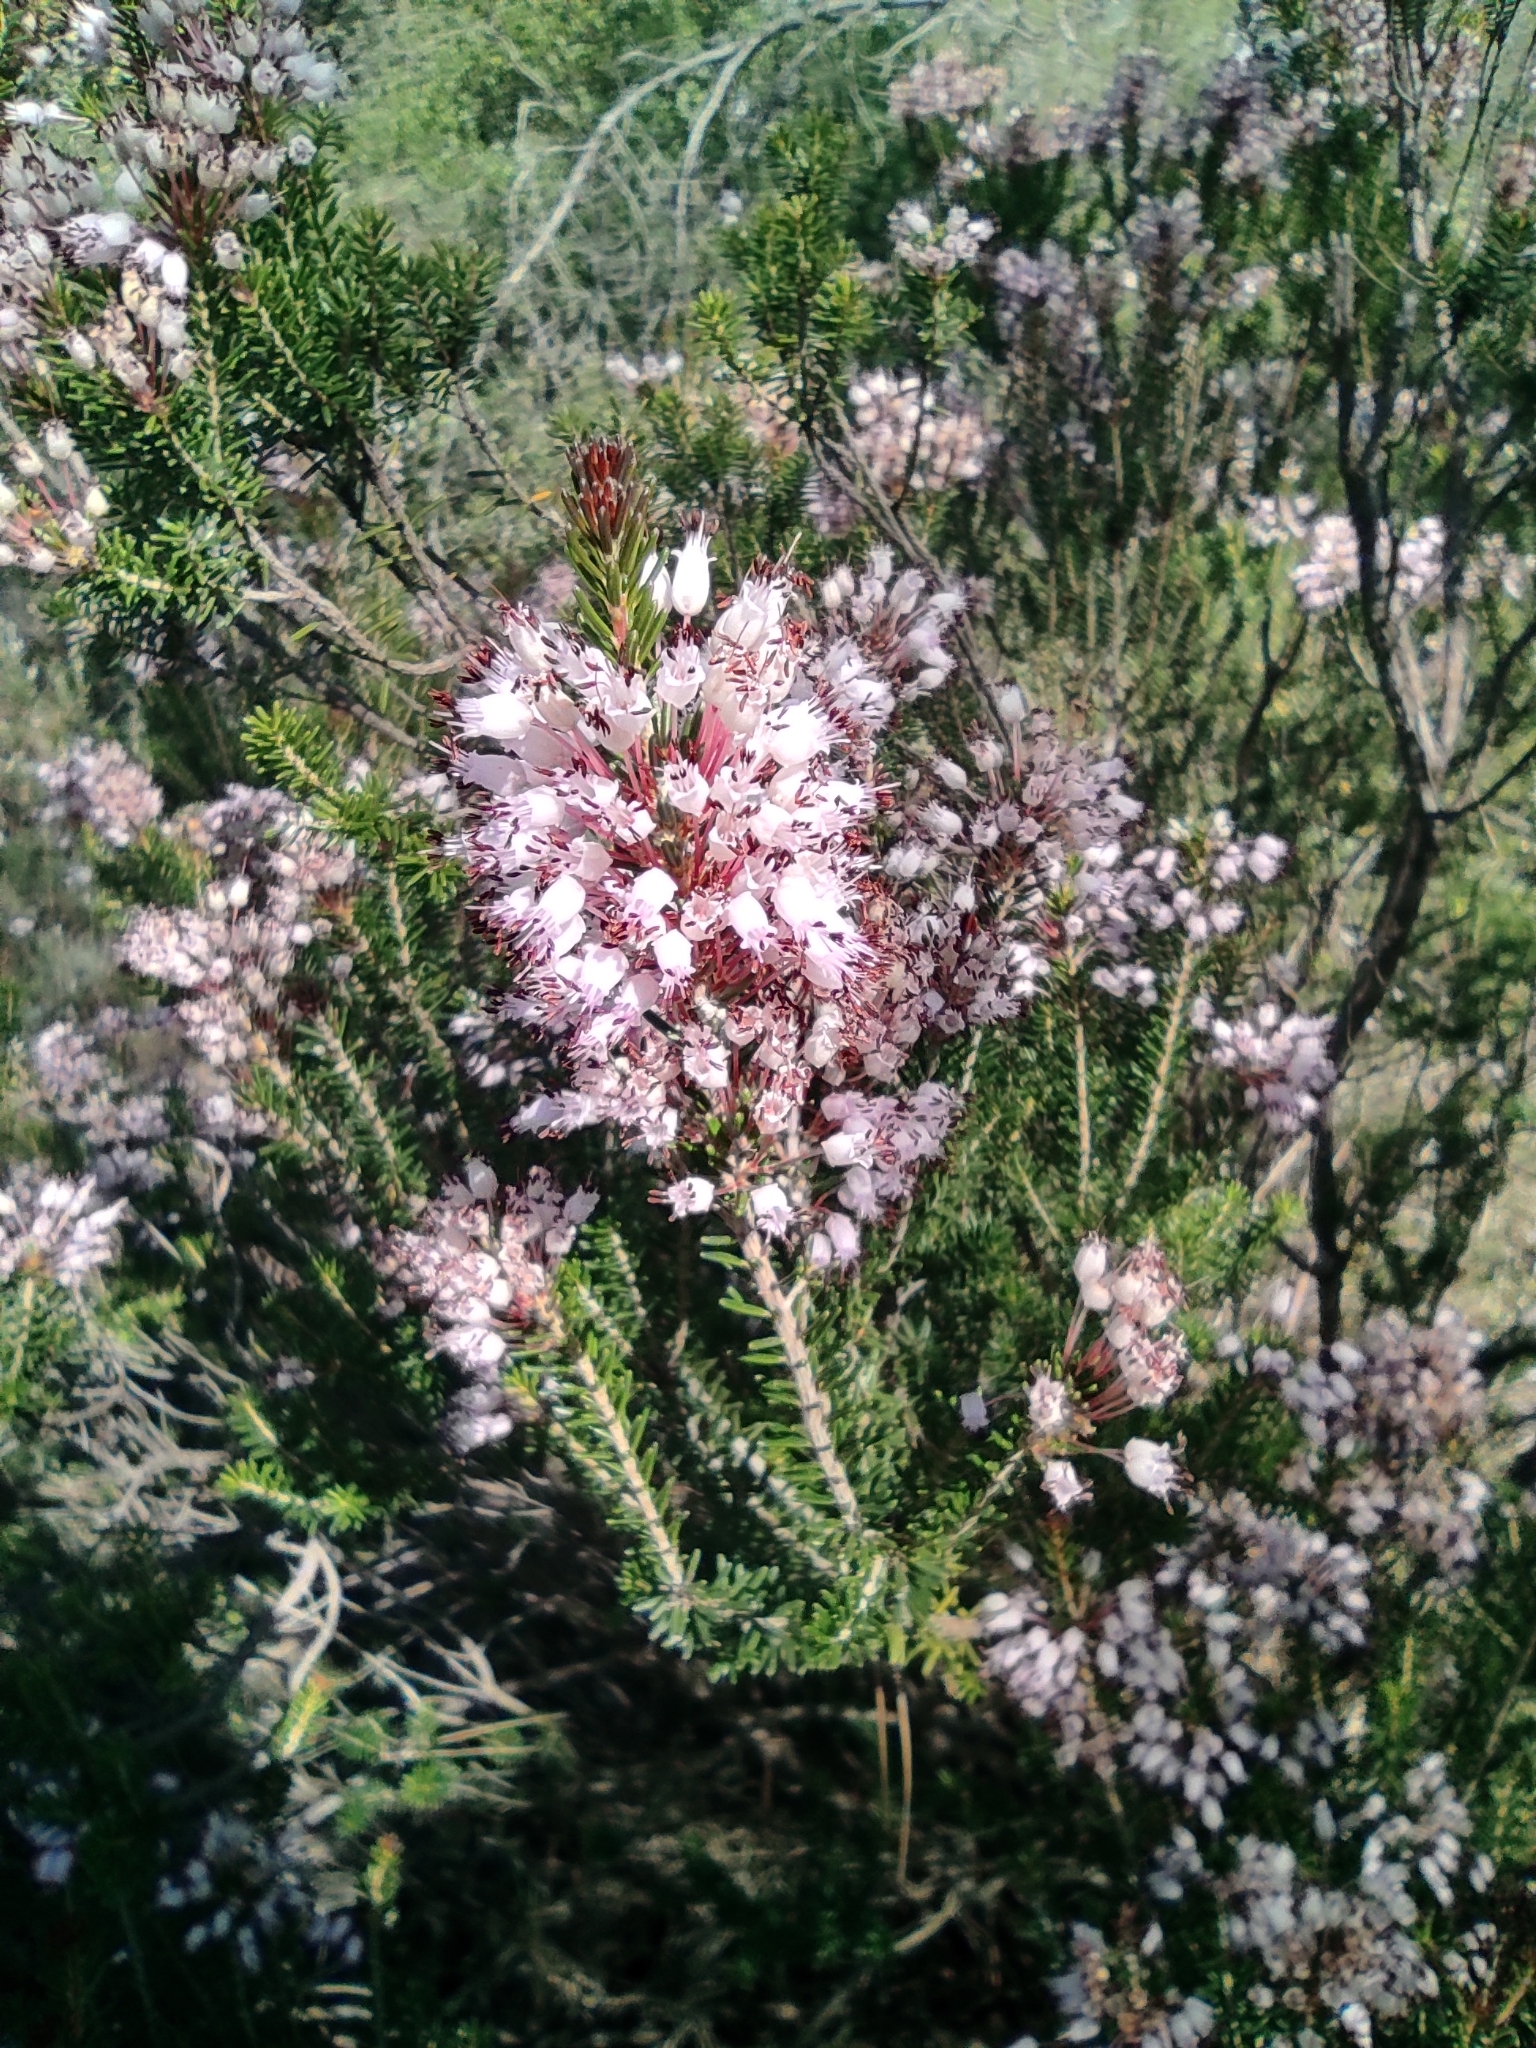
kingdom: Plantae
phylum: Tracheophyta
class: Magnoliopsida
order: Ericales
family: Ericaceae
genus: Erica
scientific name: Erica multiflora
